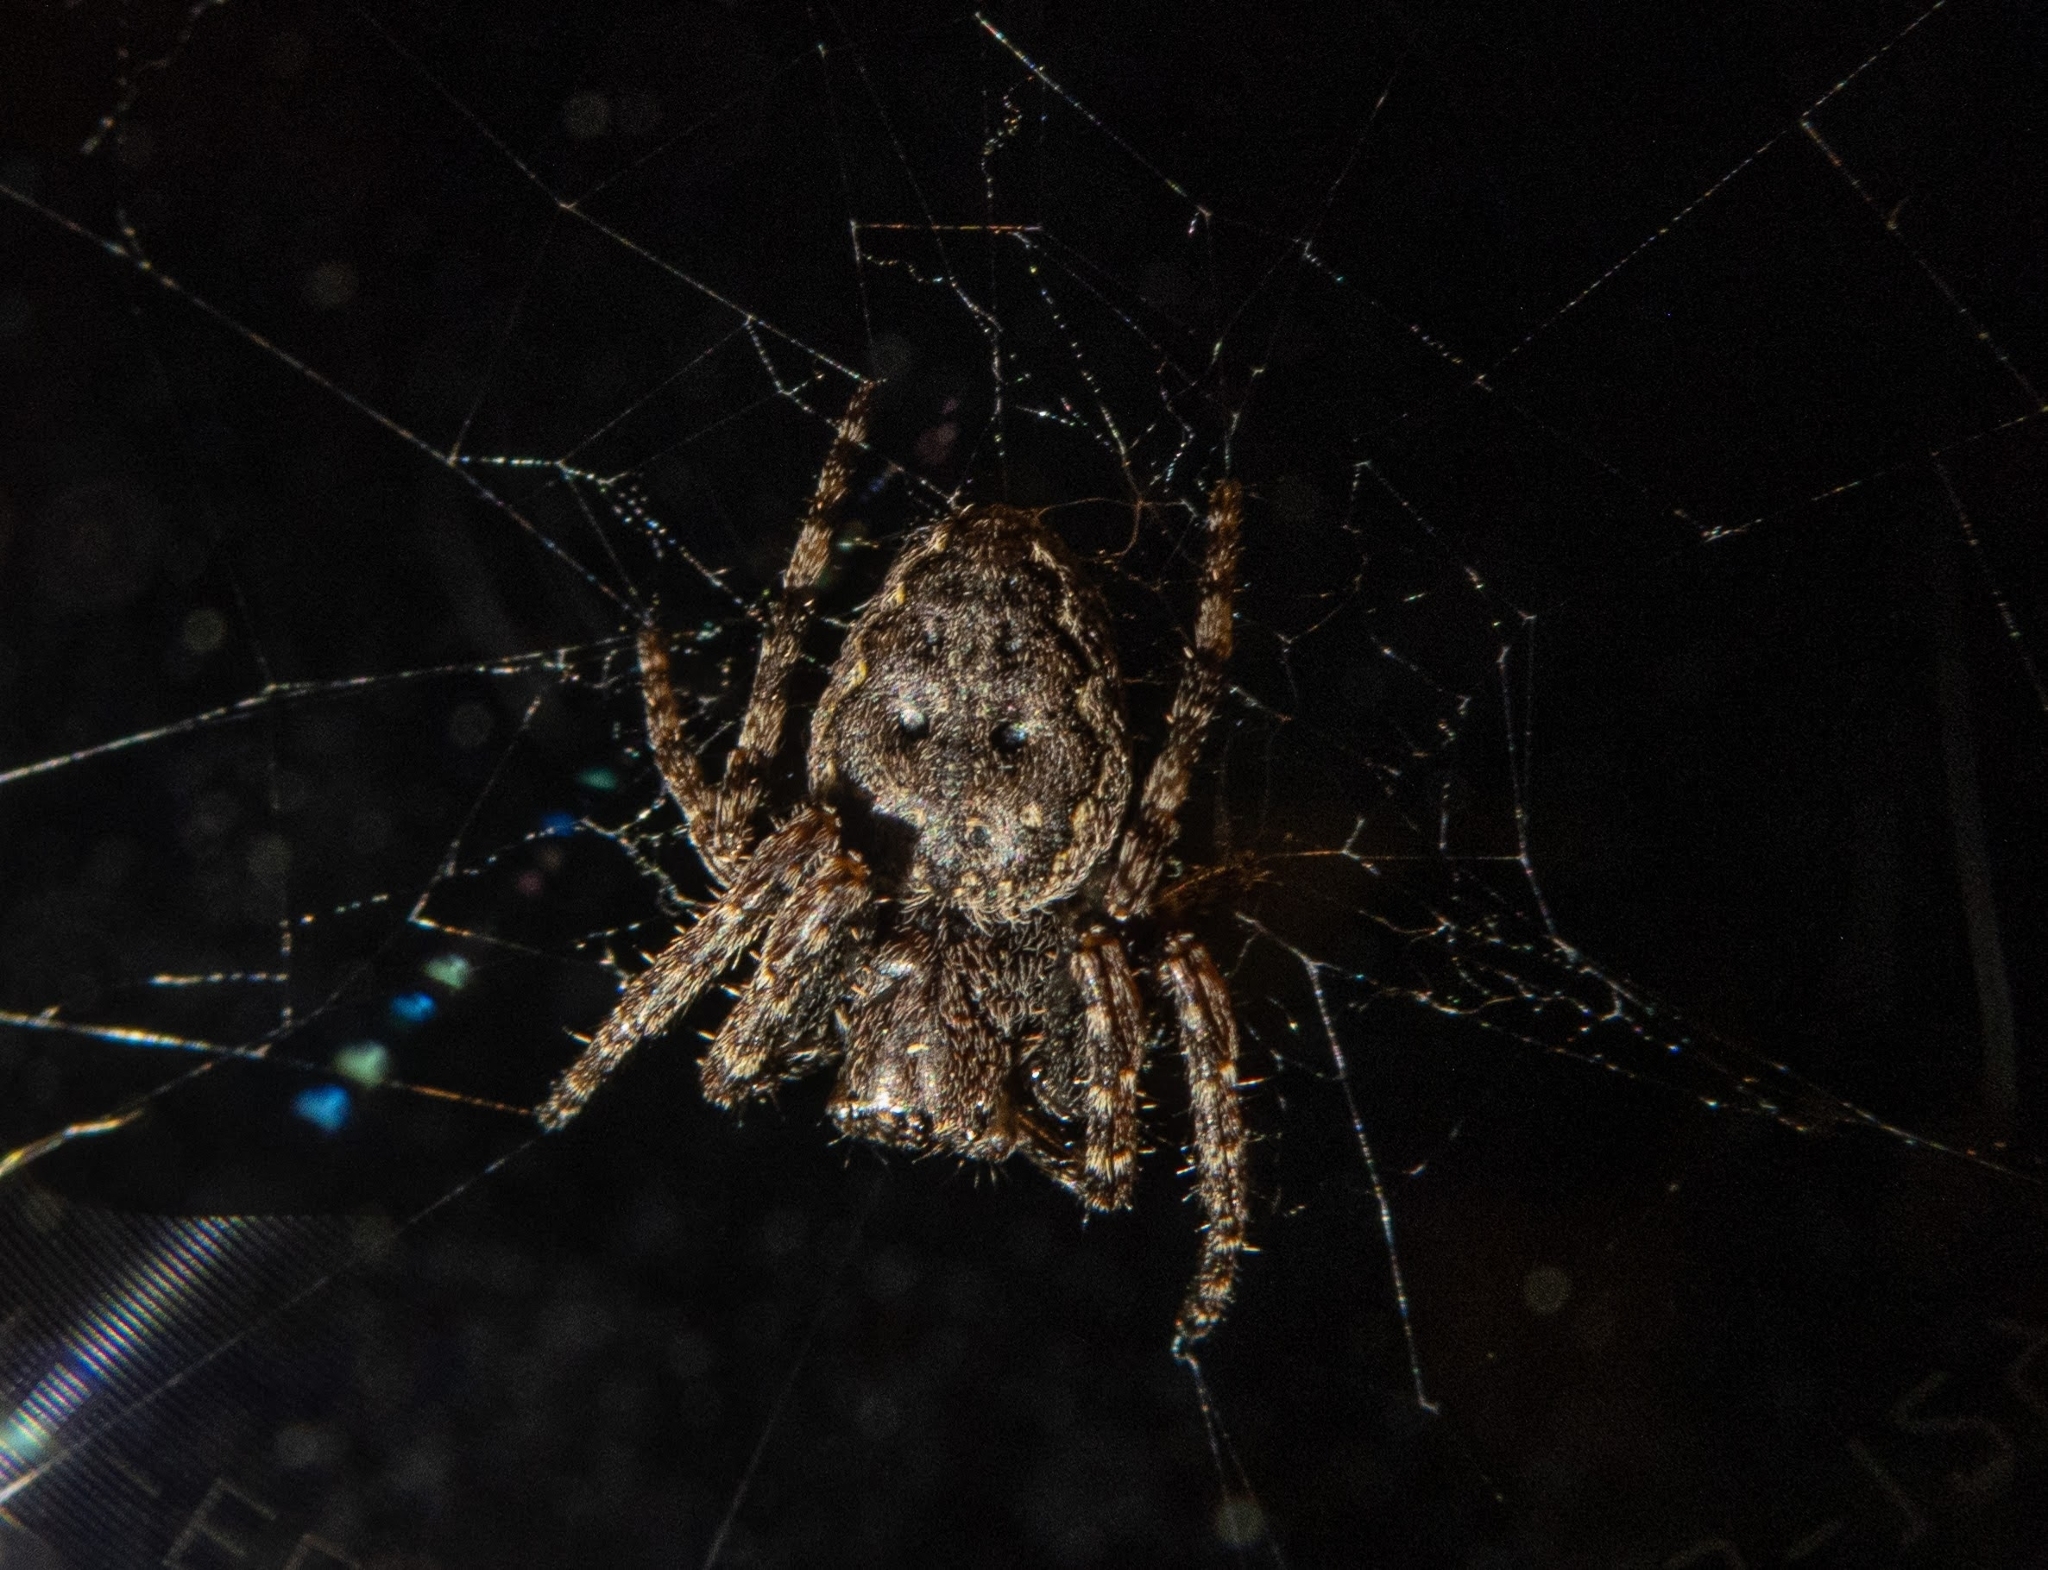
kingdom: Animalia
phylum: Arthropoda
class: Arachnida
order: Araneae
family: Araneidae
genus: Nuctenea
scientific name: Nuctenea umbratica
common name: Toad spider
